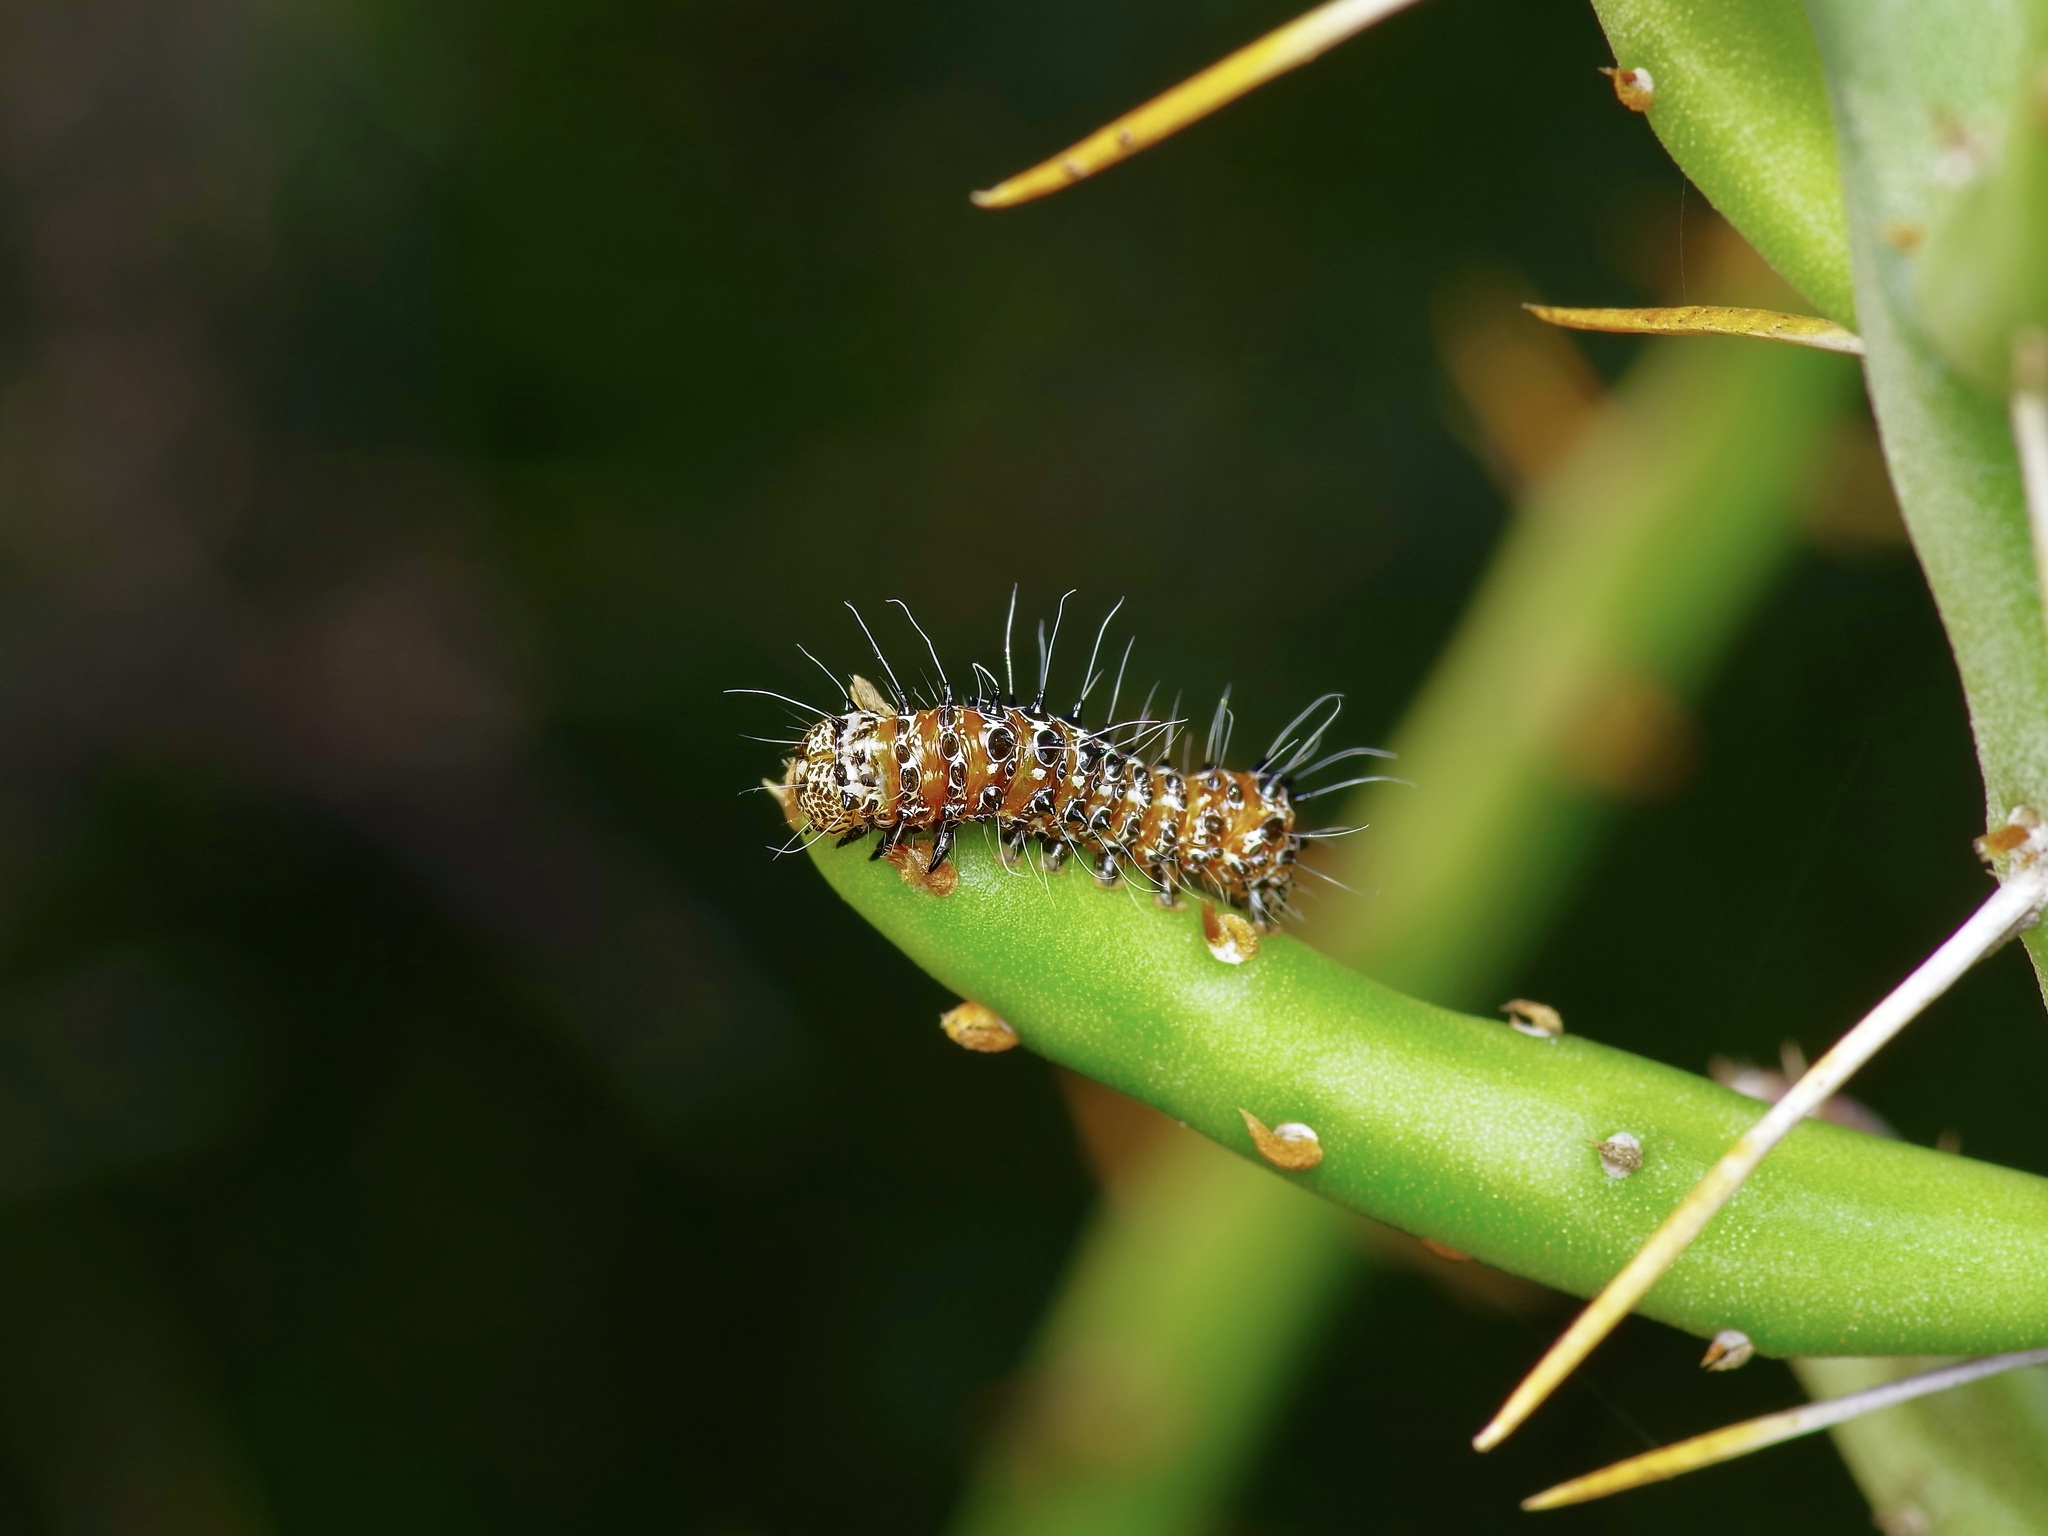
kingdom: Animalia
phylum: Arthropoda
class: Insecta
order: Lepidoptera
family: Noctuidae
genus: Euscirrhopterus
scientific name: Euscirrhopterus cosyra
